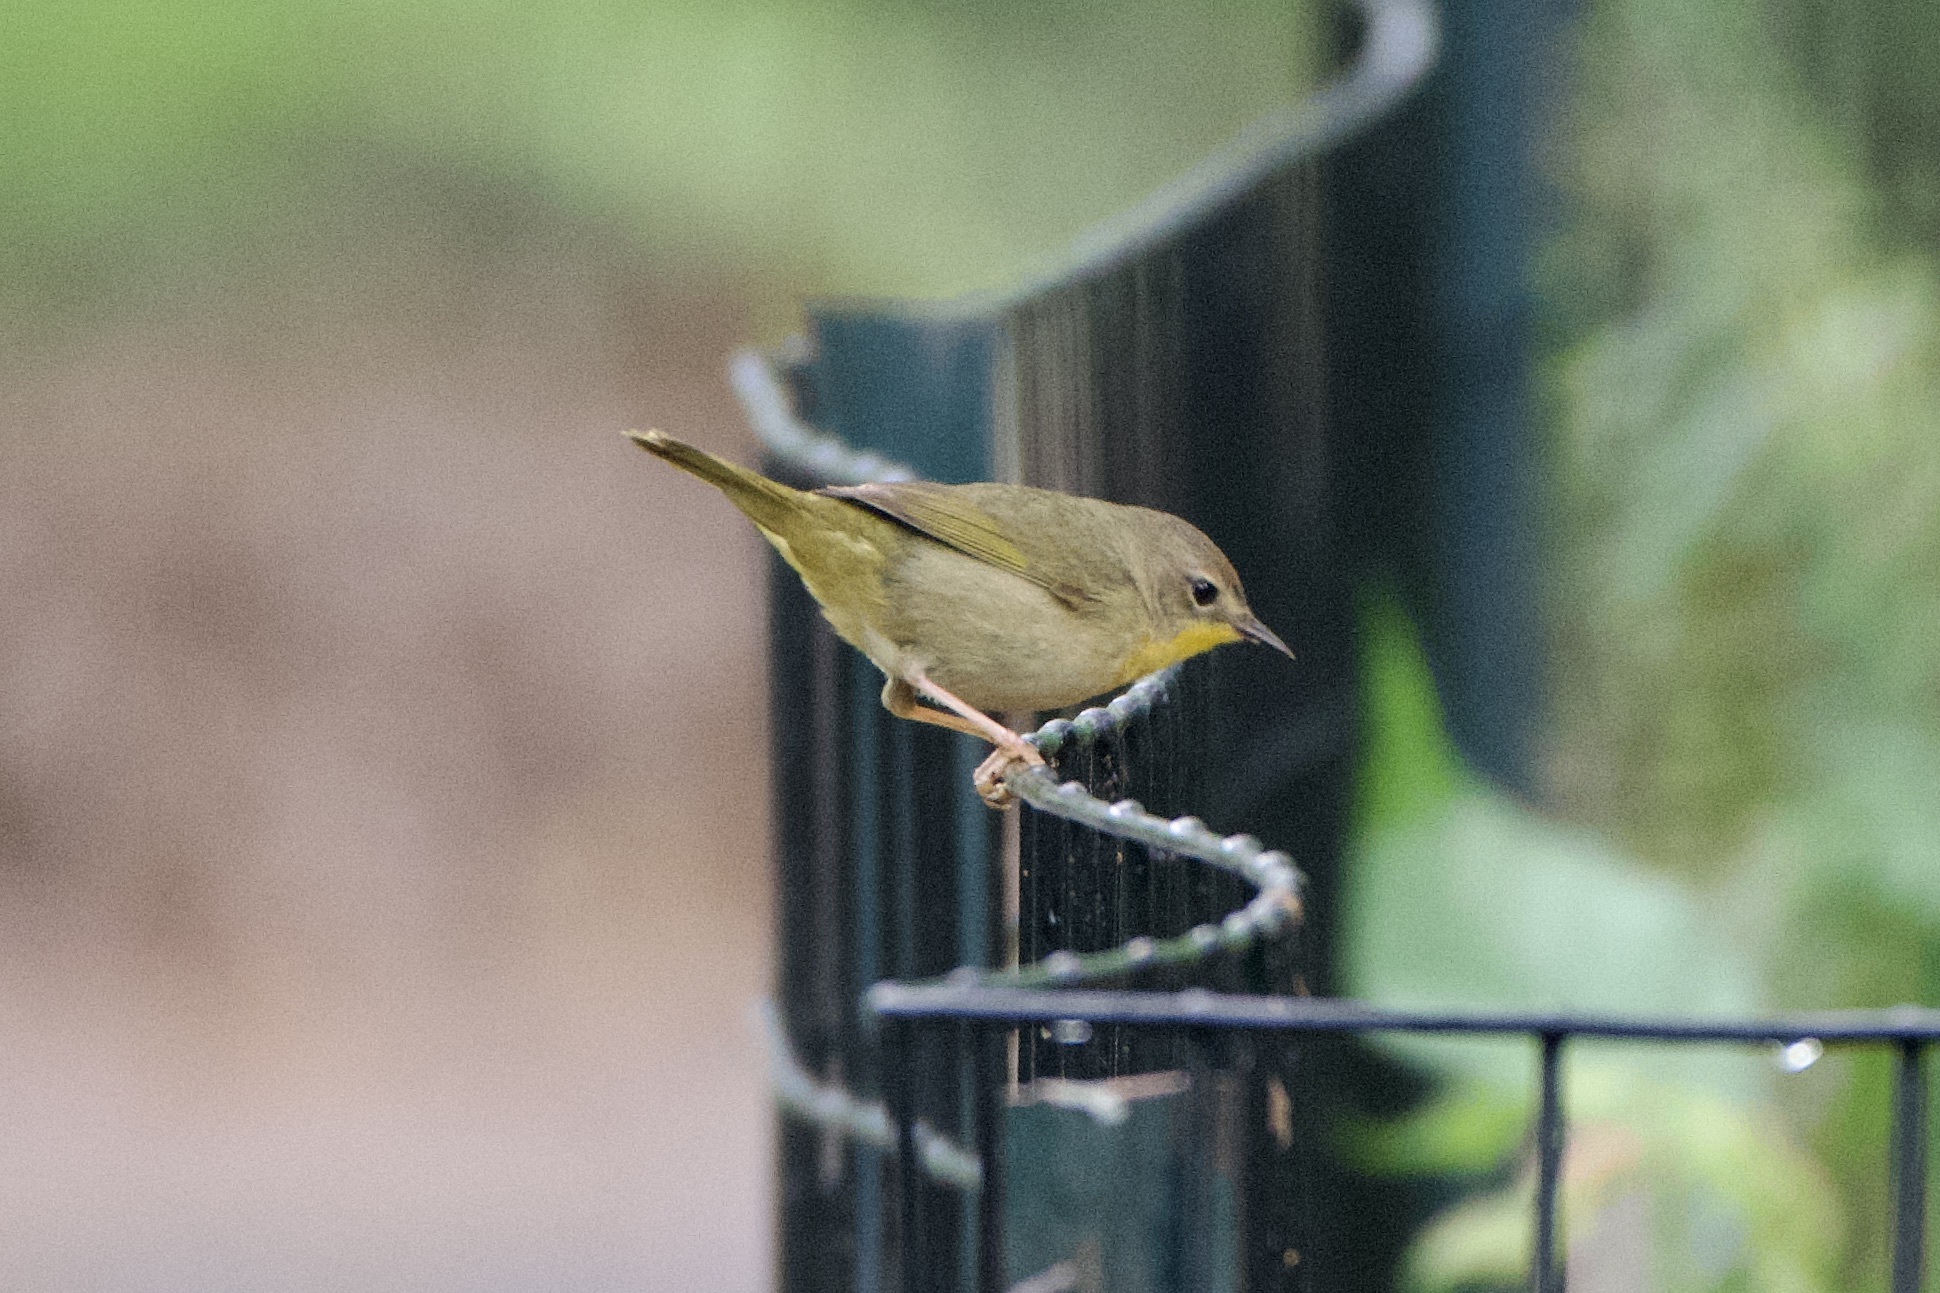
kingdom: Animalia
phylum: Chordata
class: Aves
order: Passeriformes
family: Parulidae
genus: Geothlypis
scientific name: Geothlypis trichas
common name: Common yellowthroat
